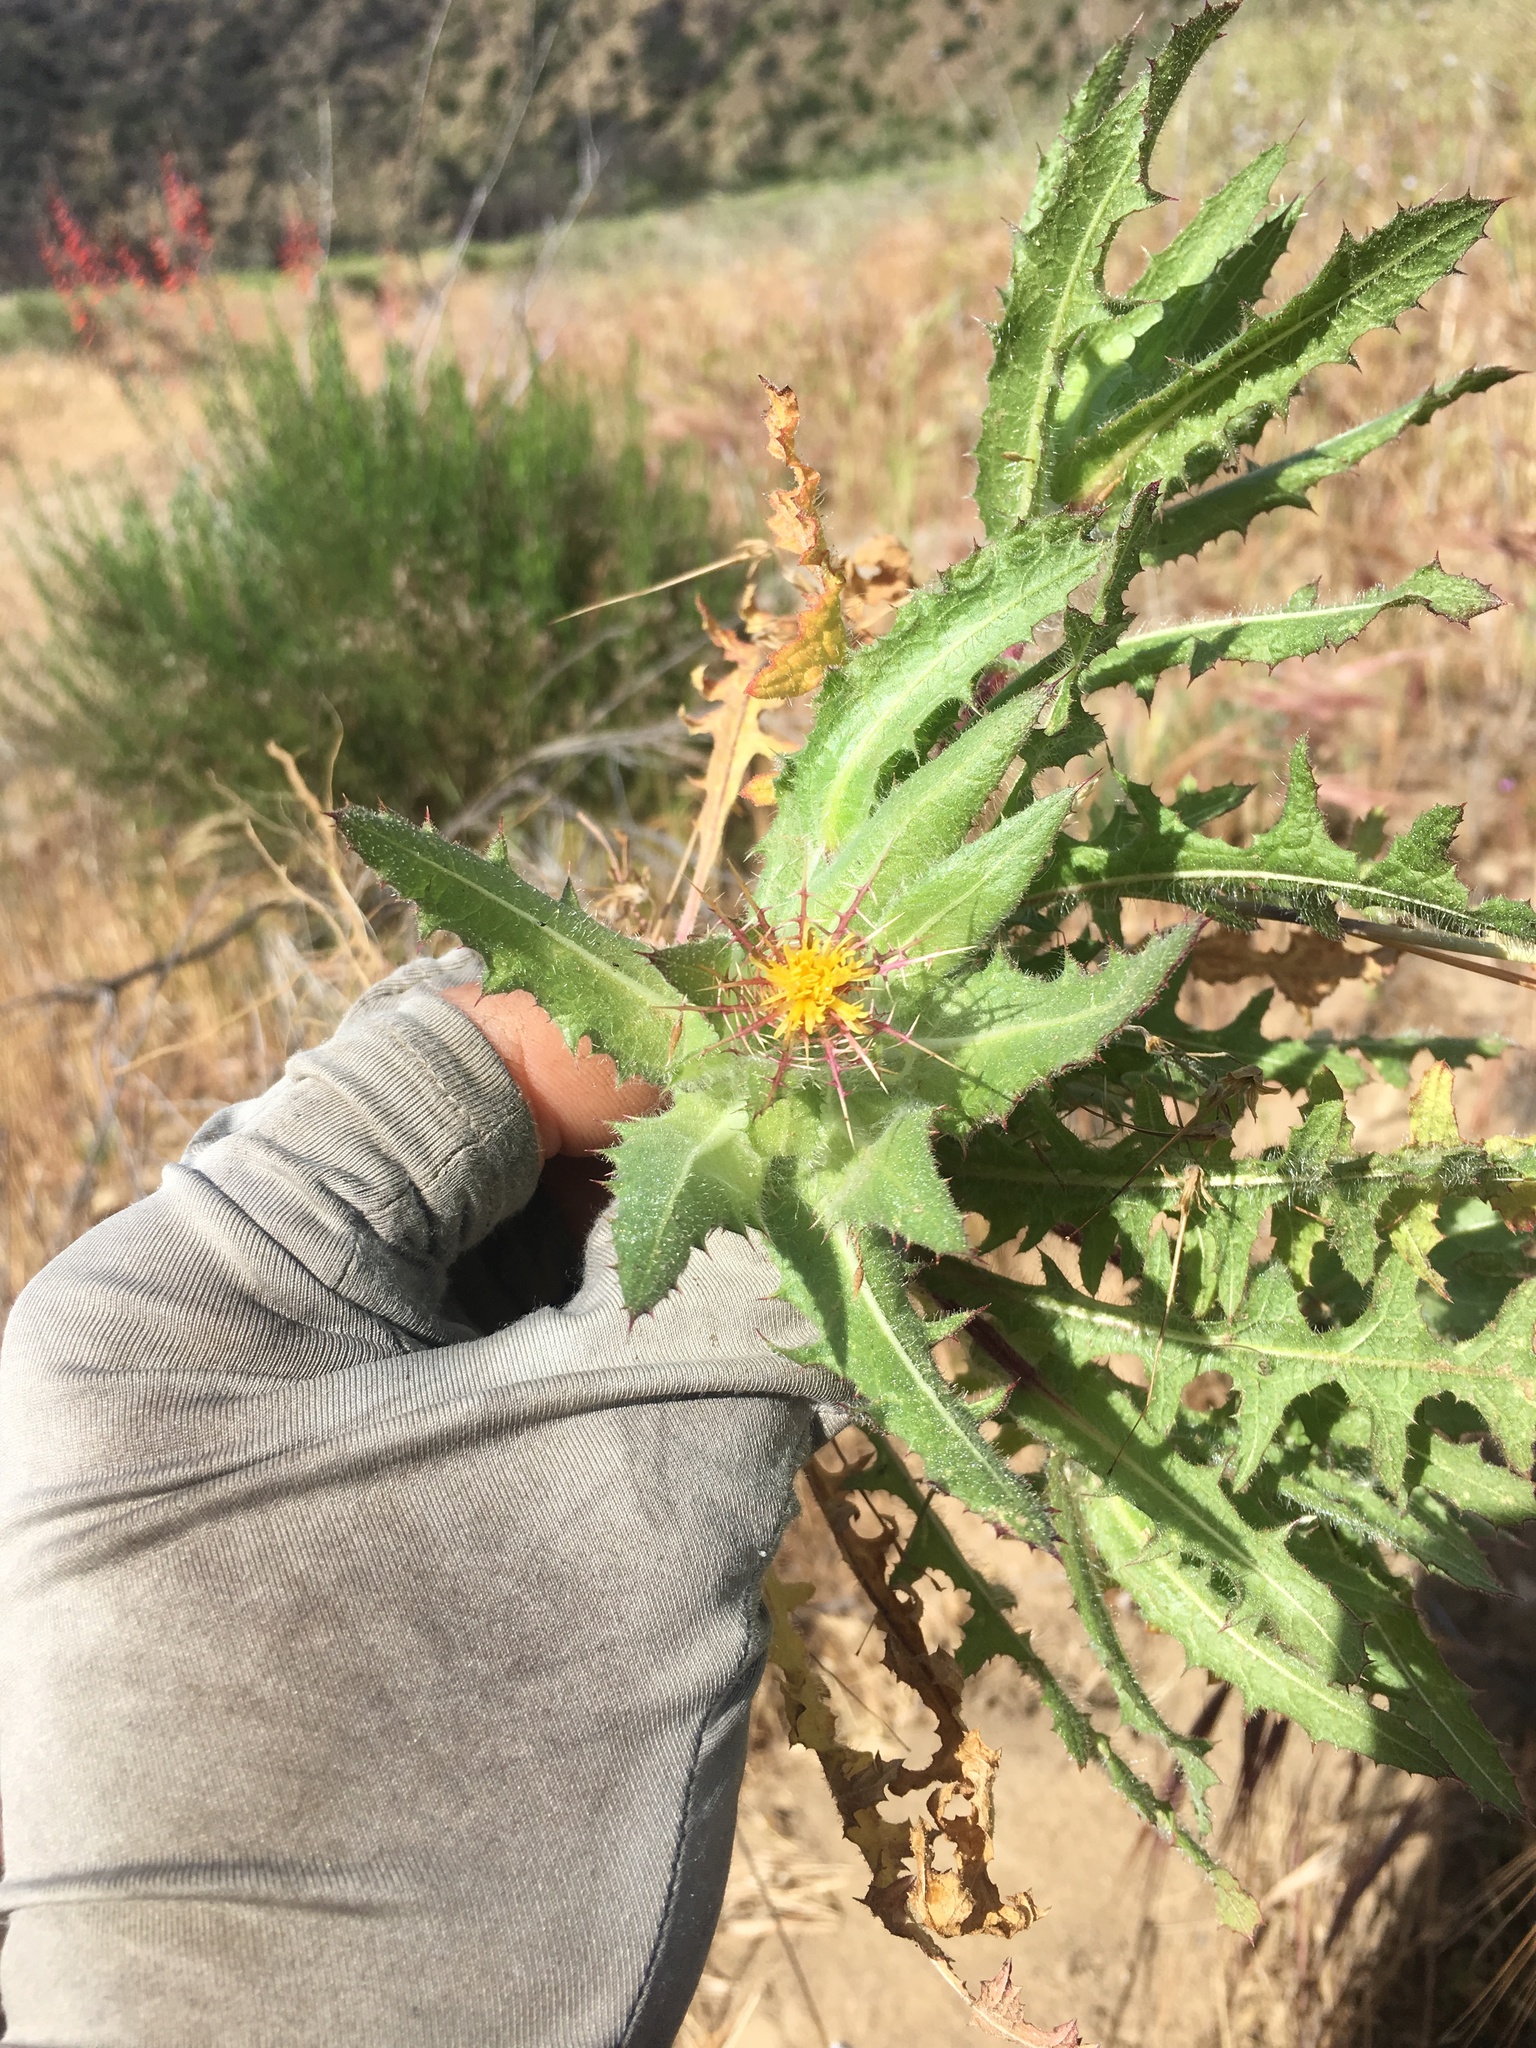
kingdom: Plantae
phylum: Tracheophyta
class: Magnoliopsida
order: Asterales
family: Asteraceae
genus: Centaurea
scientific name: Centaurea benedicta
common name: Blessed thistle
